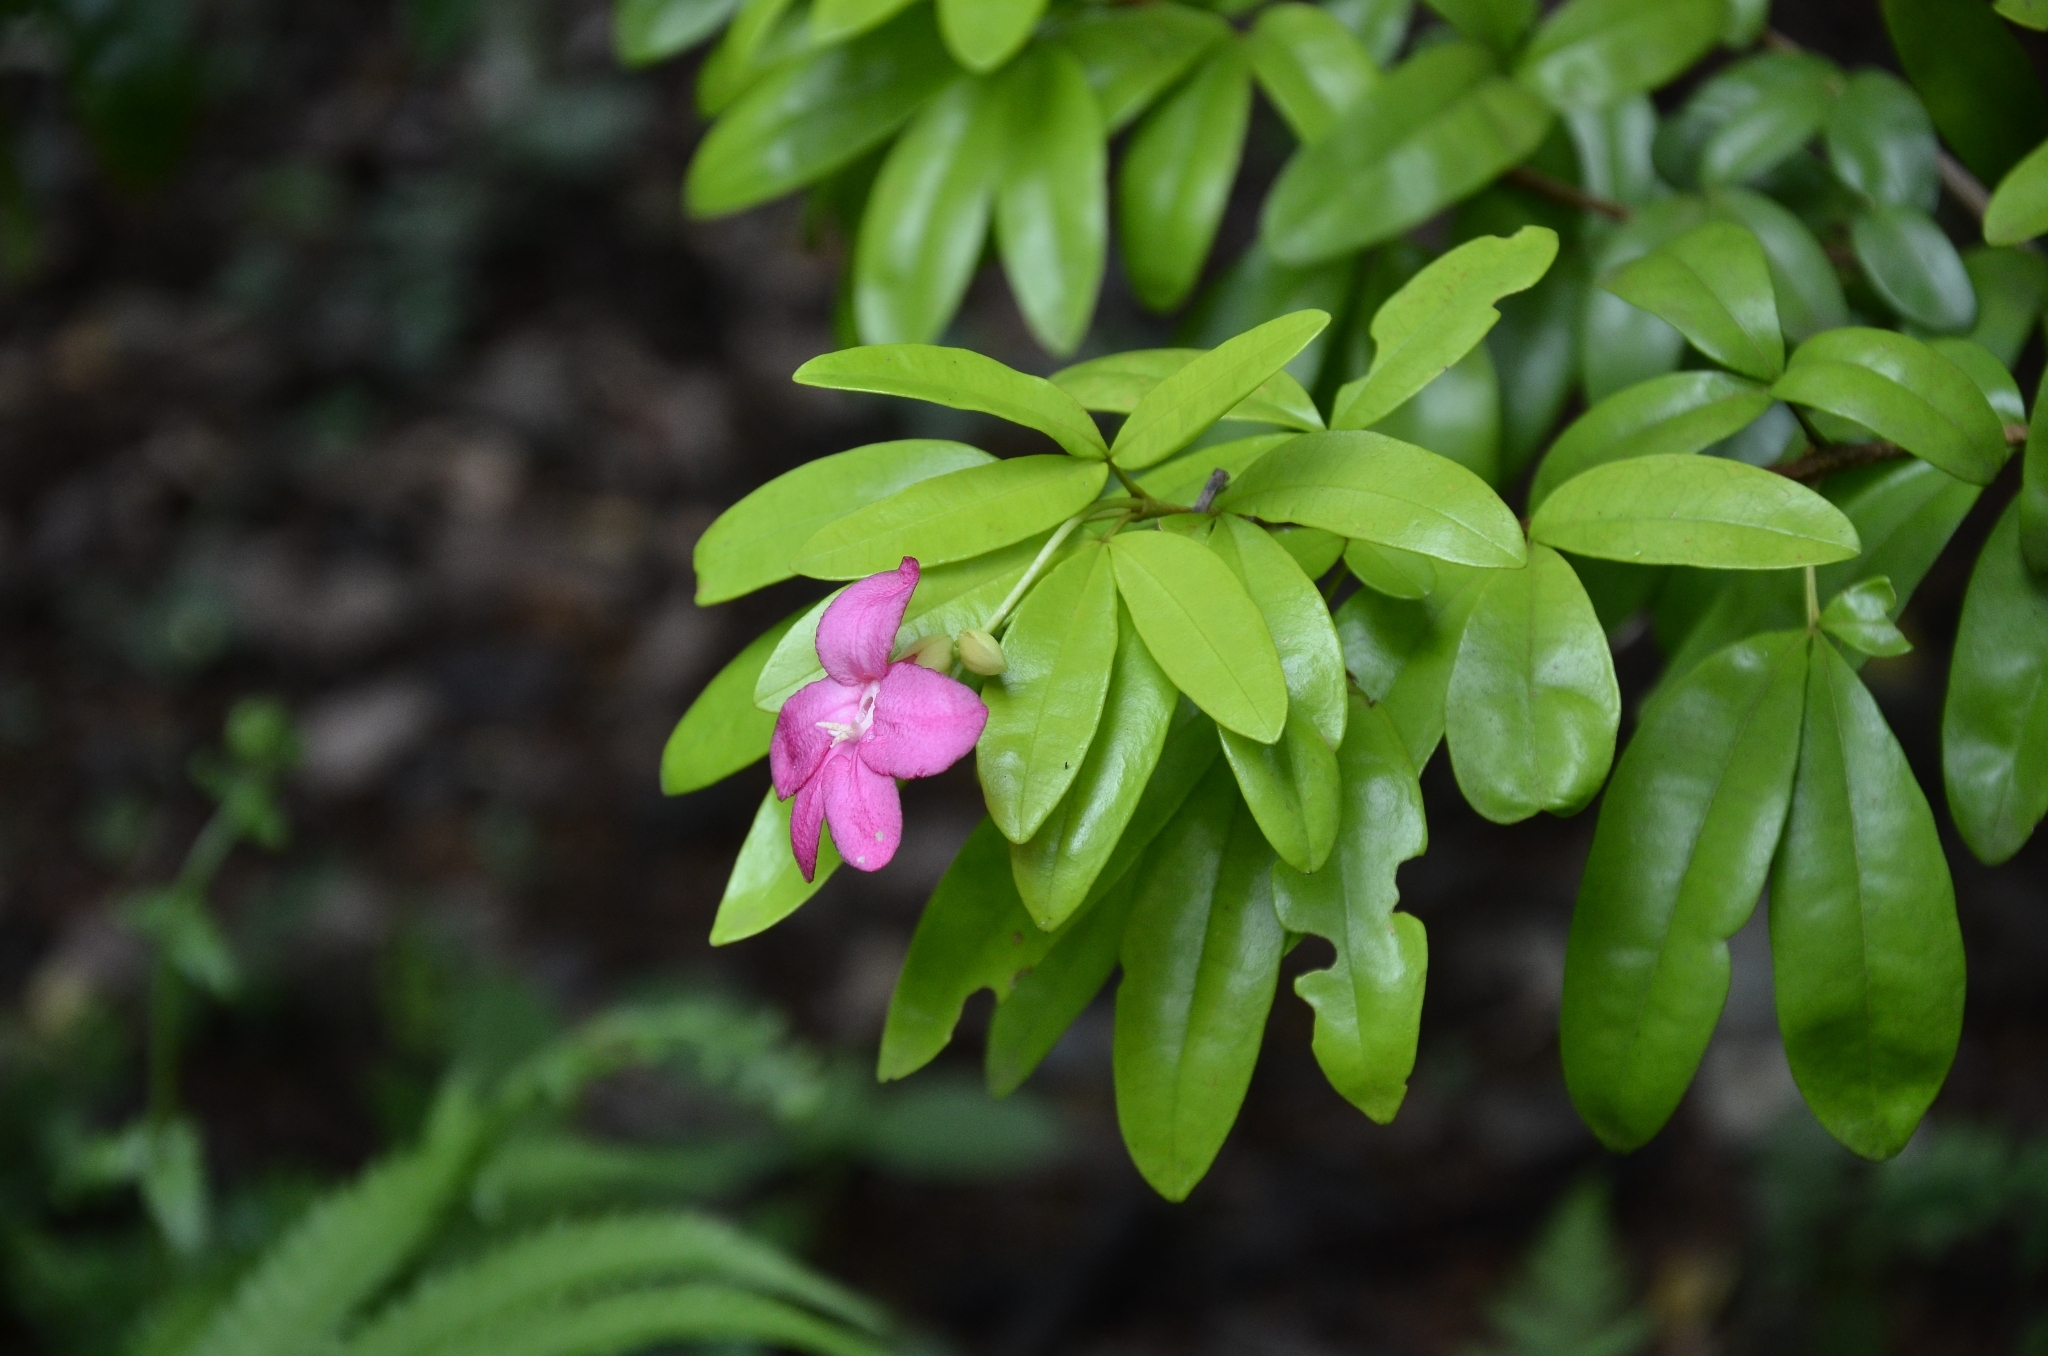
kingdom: Plantae
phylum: Tracheophyta
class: Magnoliopsida
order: Sapindales
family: Rutaceae
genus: Ravenia
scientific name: Ravenia spectabilis
